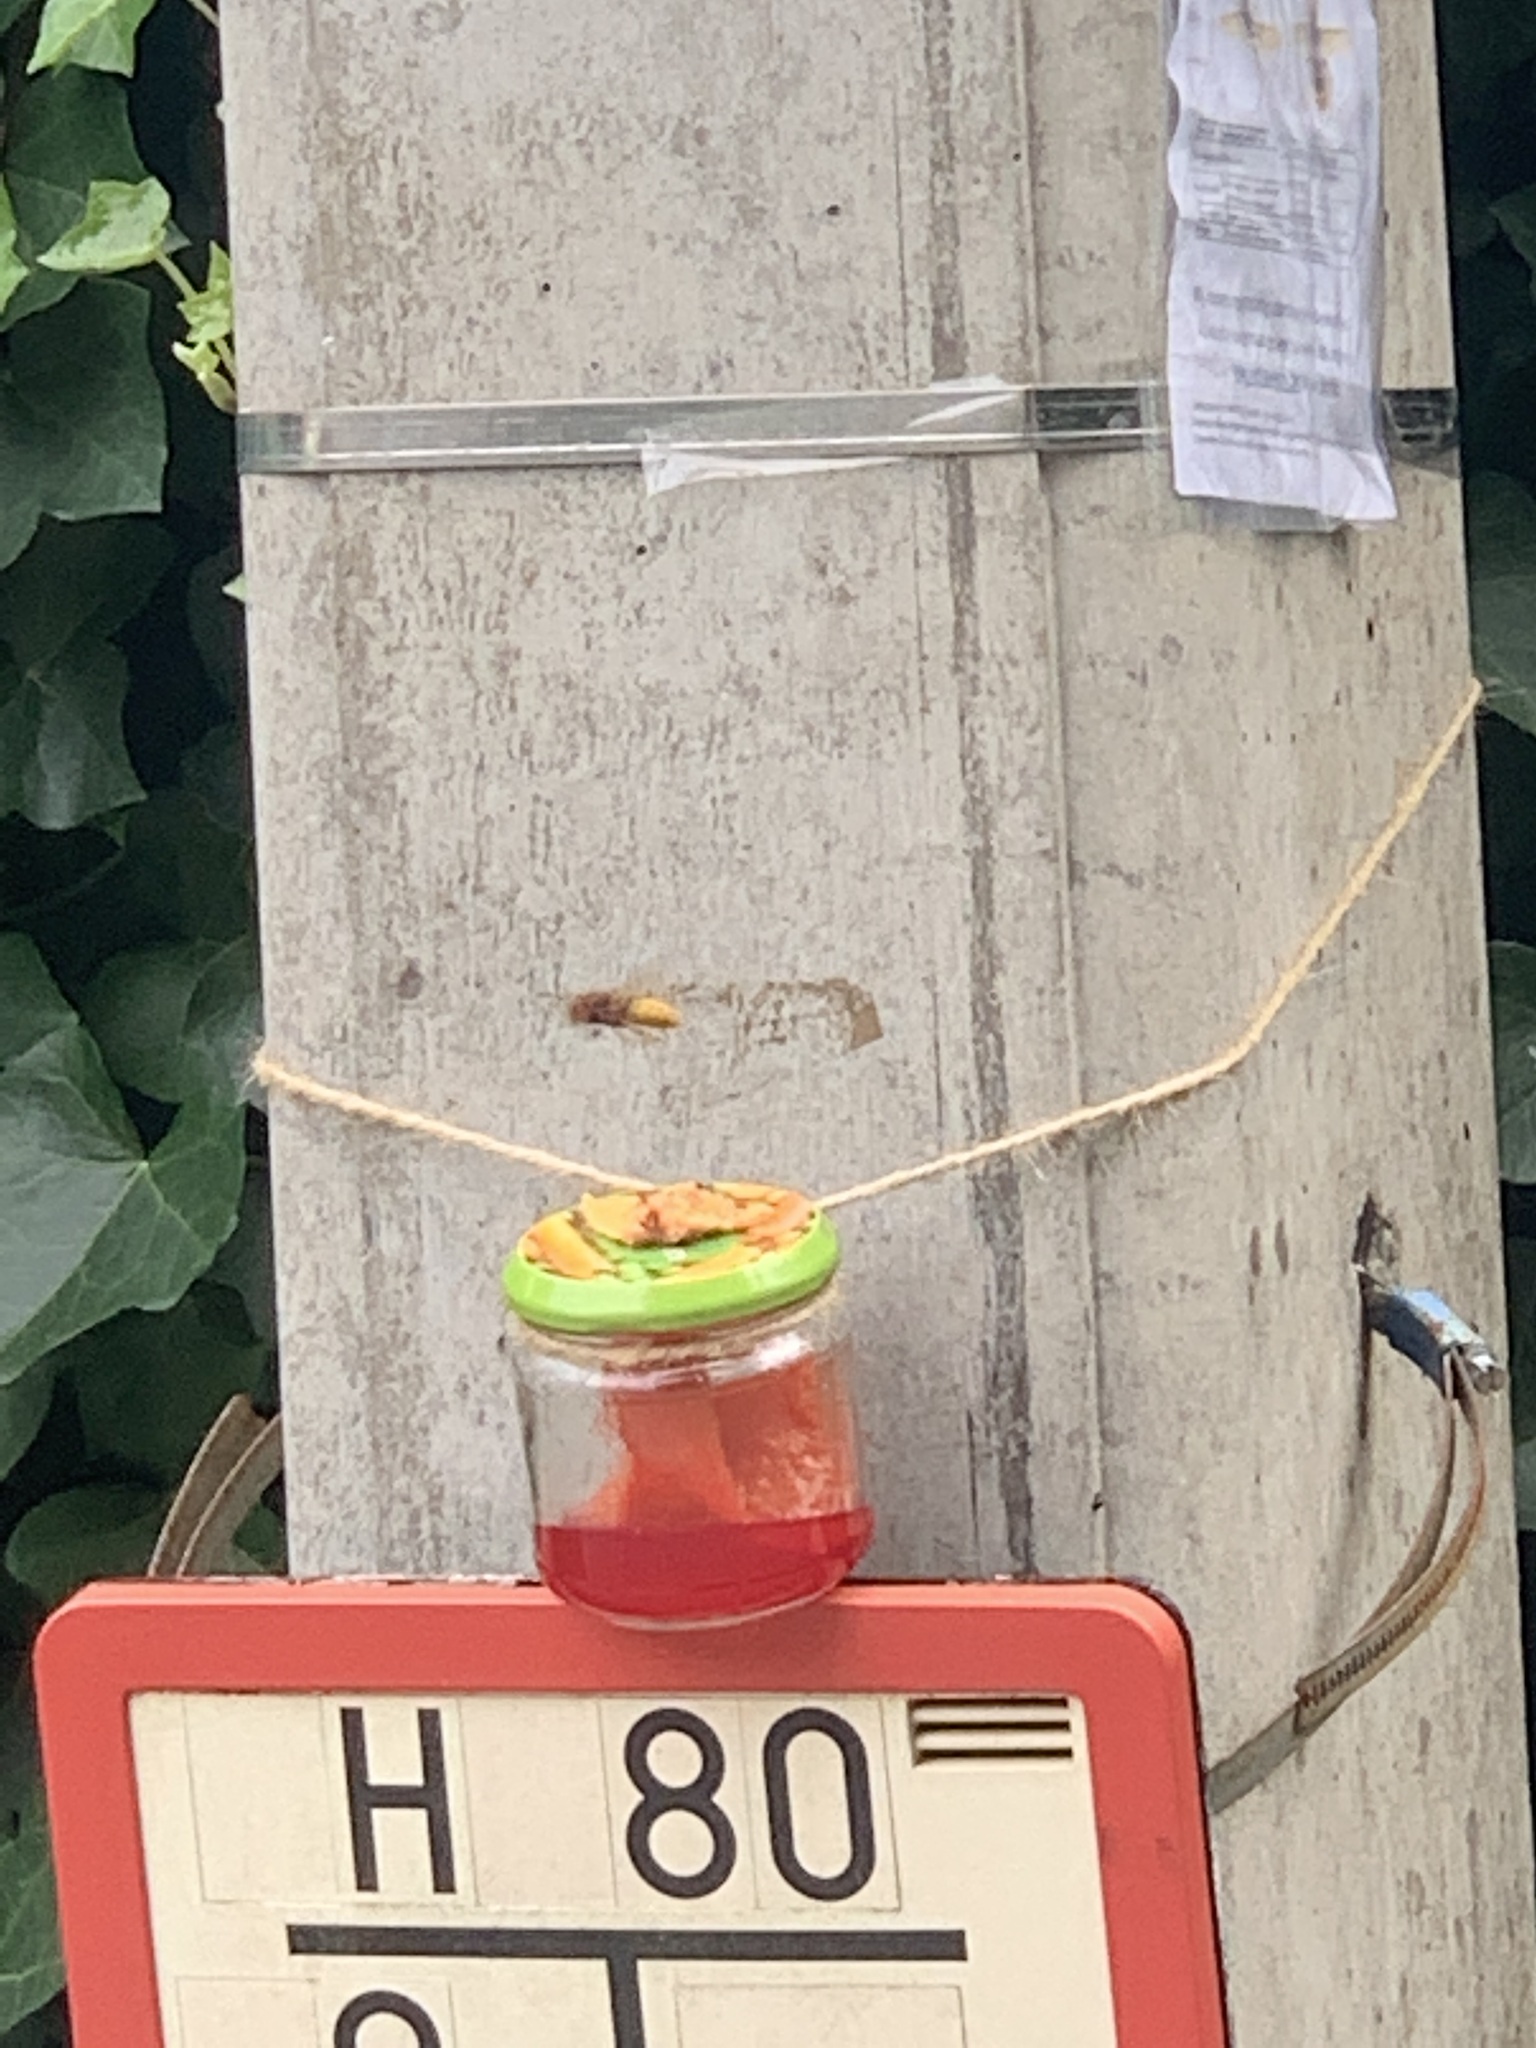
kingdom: Animalia
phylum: Arthropoda
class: Insecta
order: Hymenoptera
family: Vespidae
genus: Vespa
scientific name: Vespa crabro
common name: Hornet
